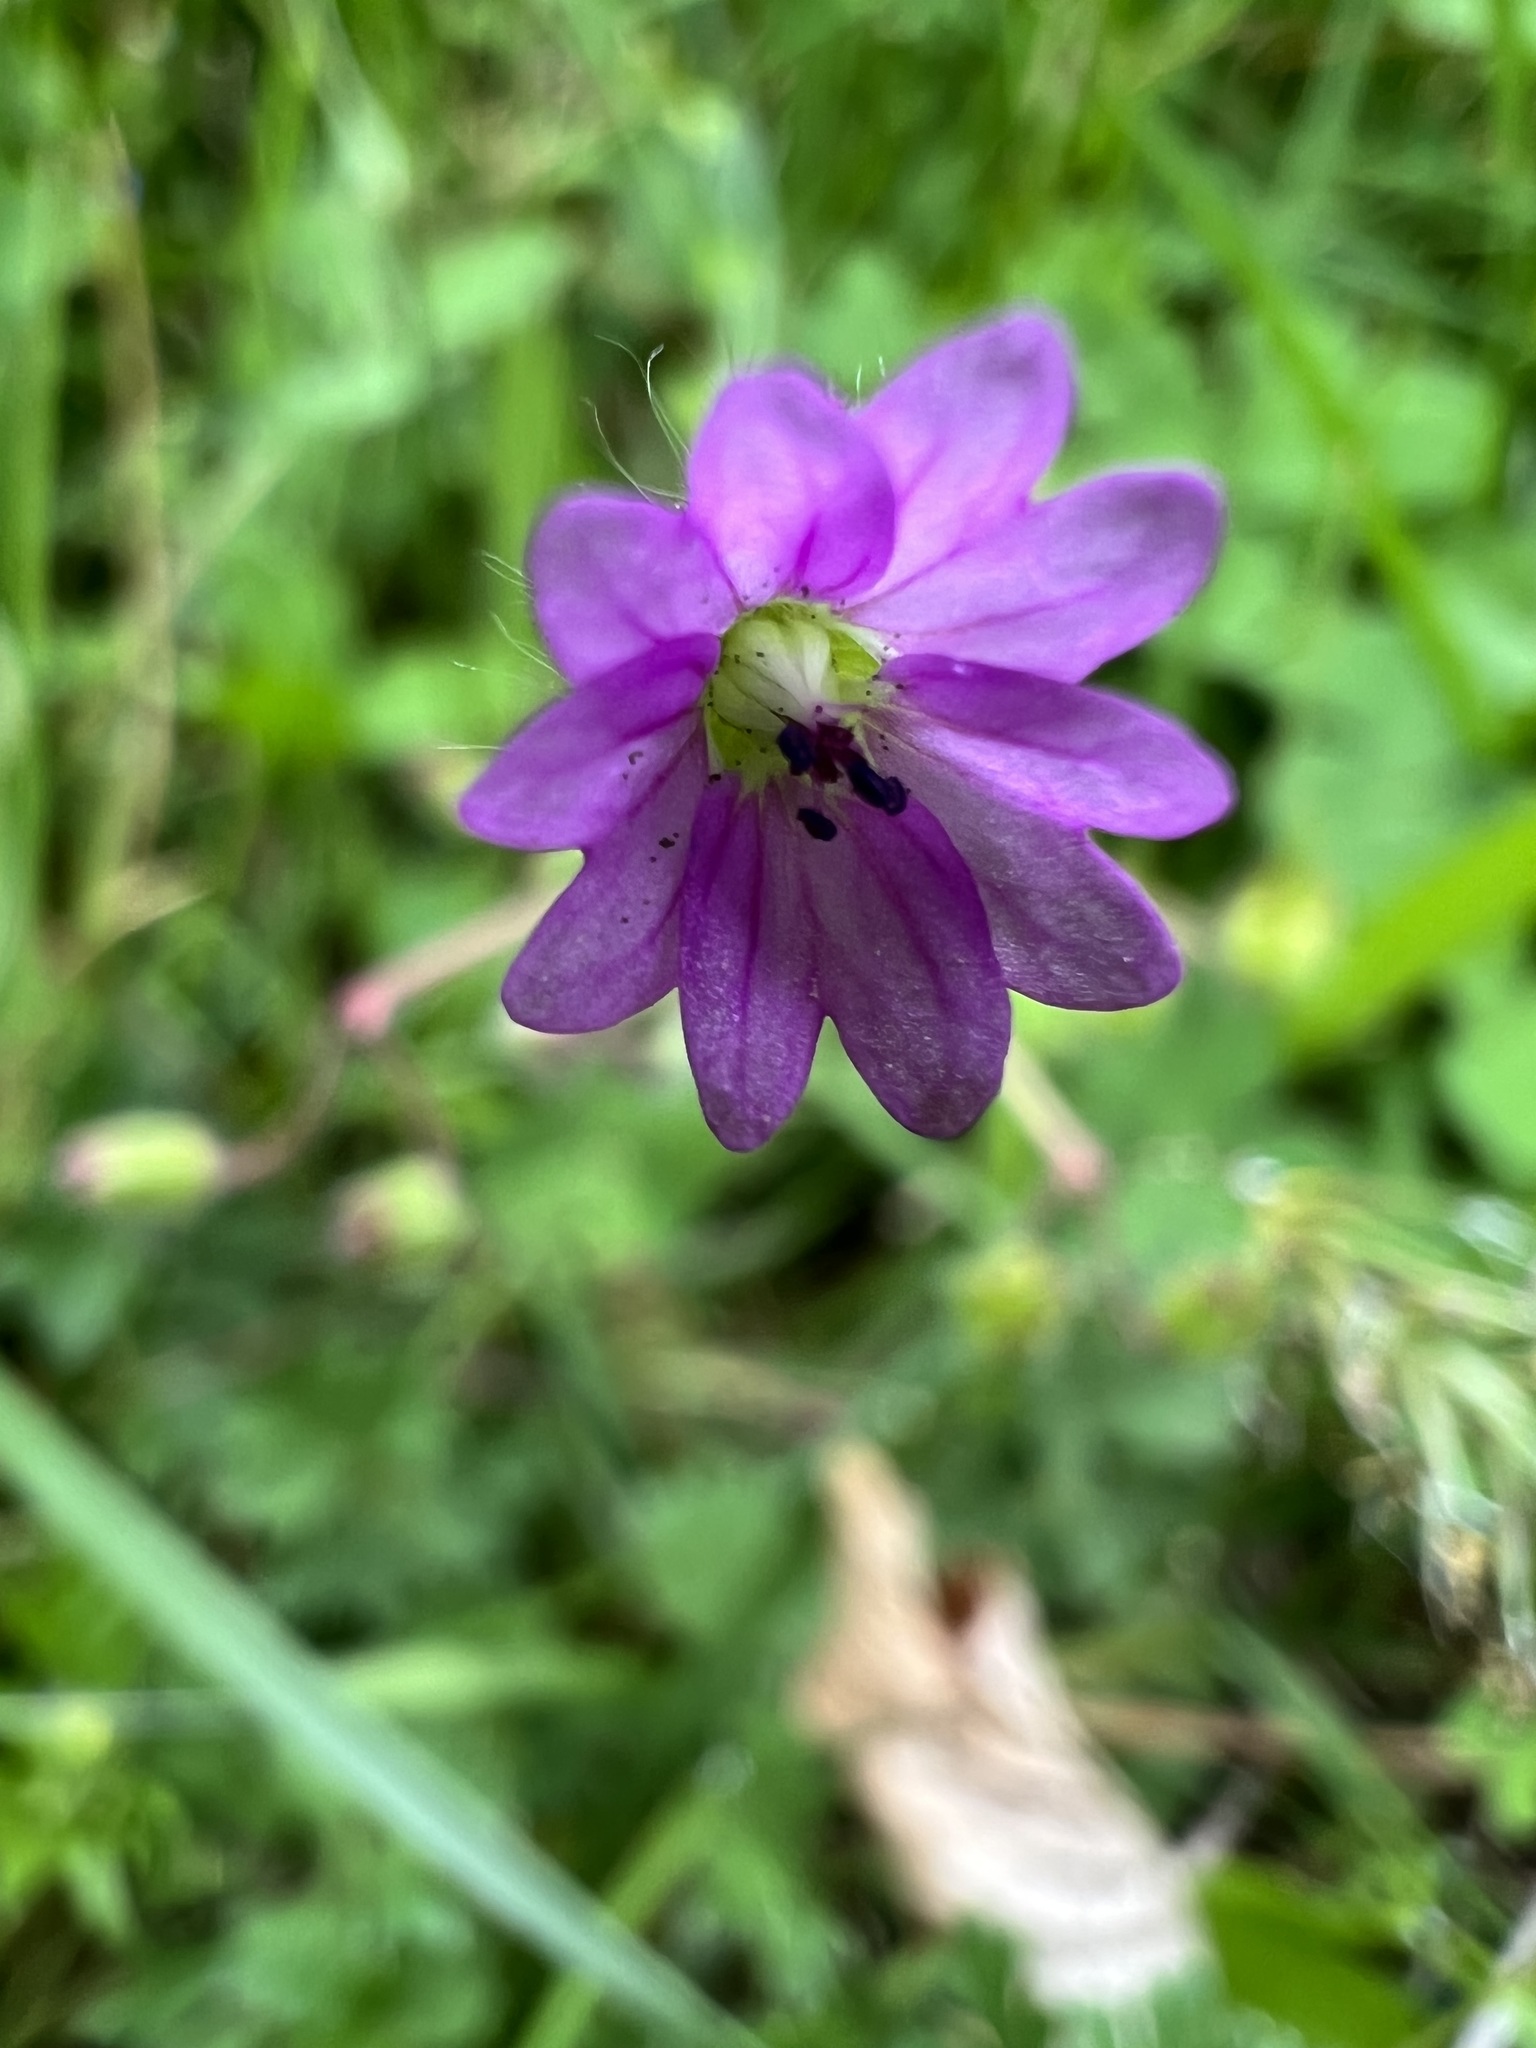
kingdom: Plantae
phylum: Tracheophyta
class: Magnoliopsida
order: Geraniales
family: Geraniaceae
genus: Geranium
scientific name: Geranium molle
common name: Dove's-foot crane's-bill
